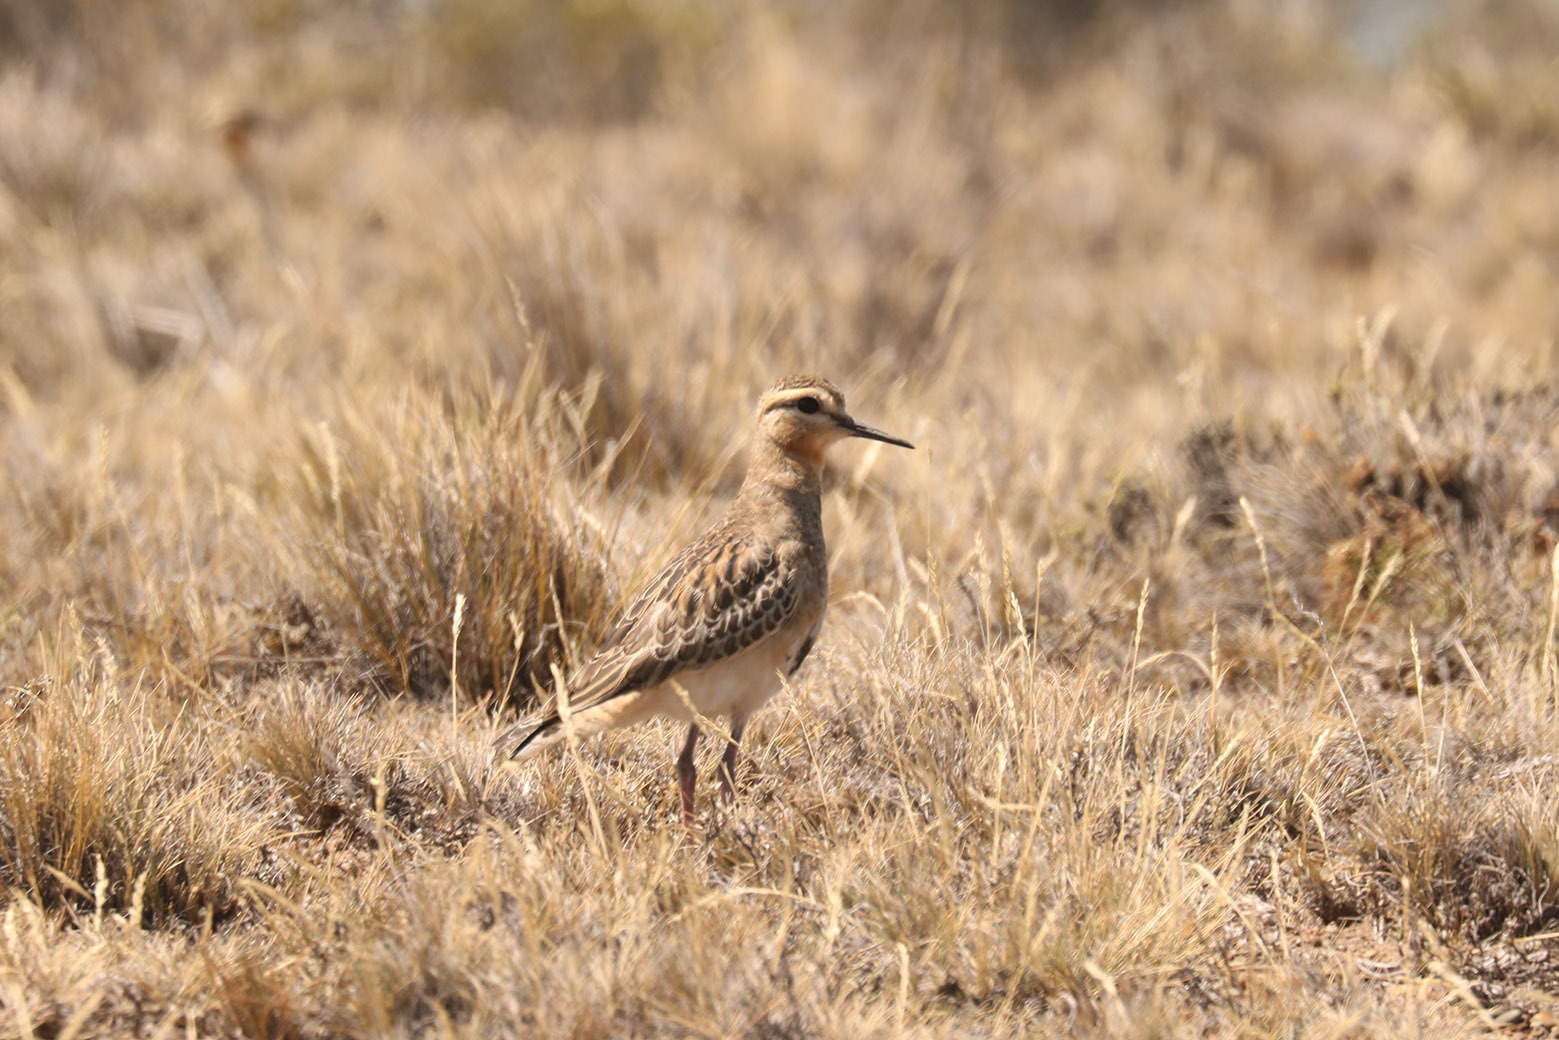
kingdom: Animalia
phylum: Chordata
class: Aves
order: Charadriiformes
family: Charadriidae
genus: Oreopholus
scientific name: Oreopholus ruficollis
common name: Tawny-throated dotterel
